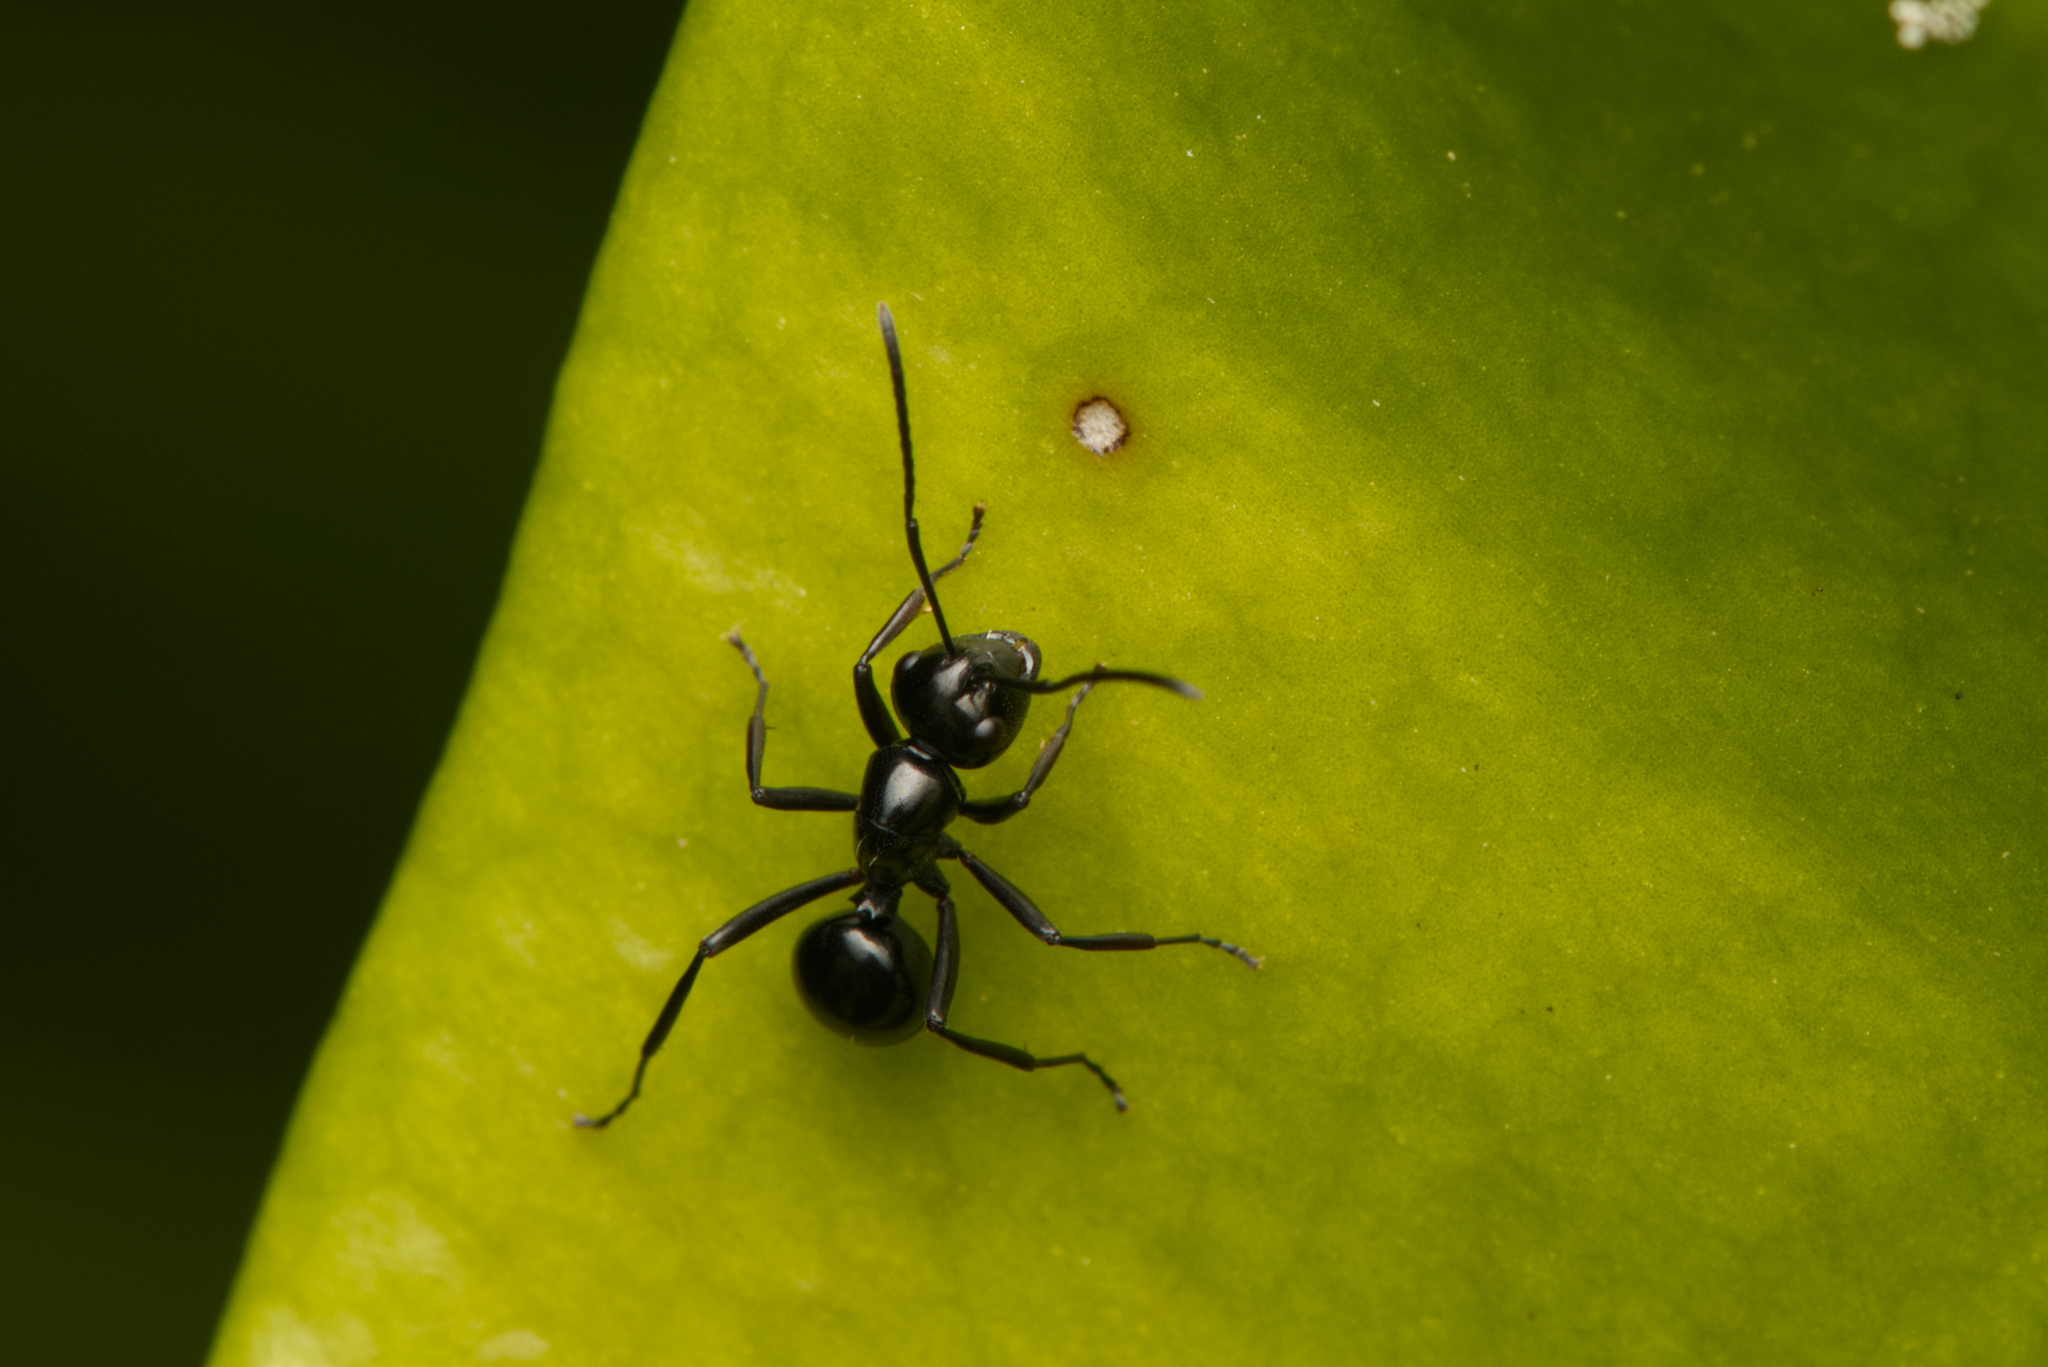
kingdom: Animalia
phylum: Arthropoda
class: Insecta
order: Hymenoptera
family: Formicidae
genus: Polyrhachis
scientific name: Polyrhachis mackayi
